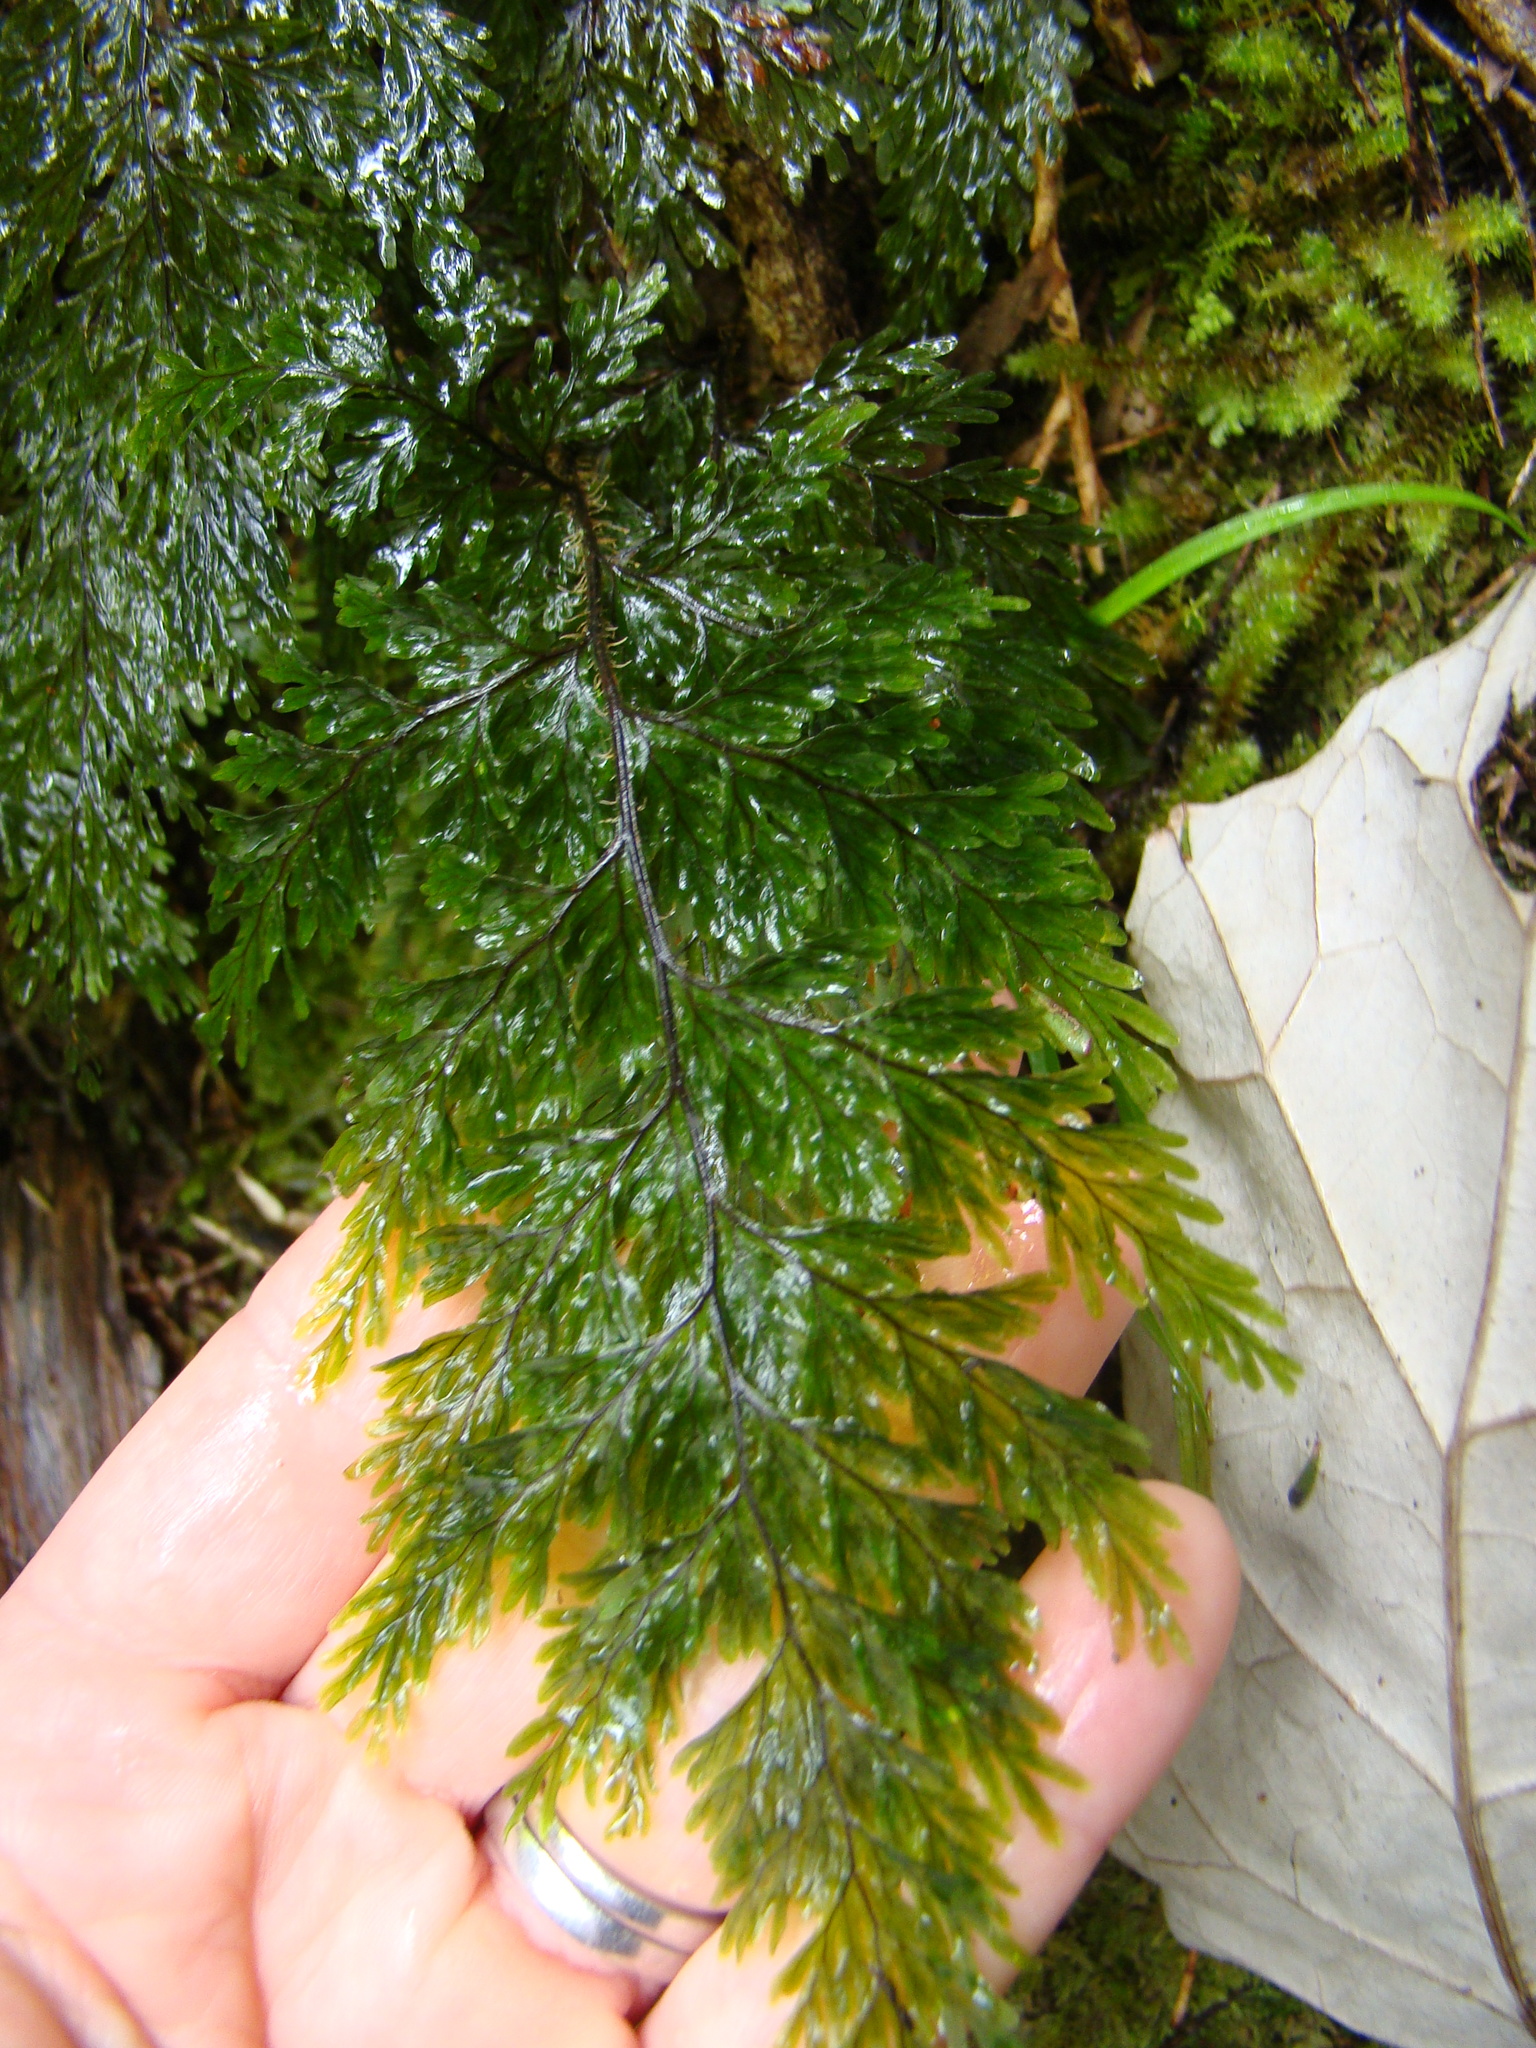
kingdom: Plantae
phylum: Tracheophyta
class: Polypodiopsida
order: Hymenophyllales
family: Hymenophyllaceae
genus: Hymenophyllum
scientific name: Hymenophyllum scabrum
